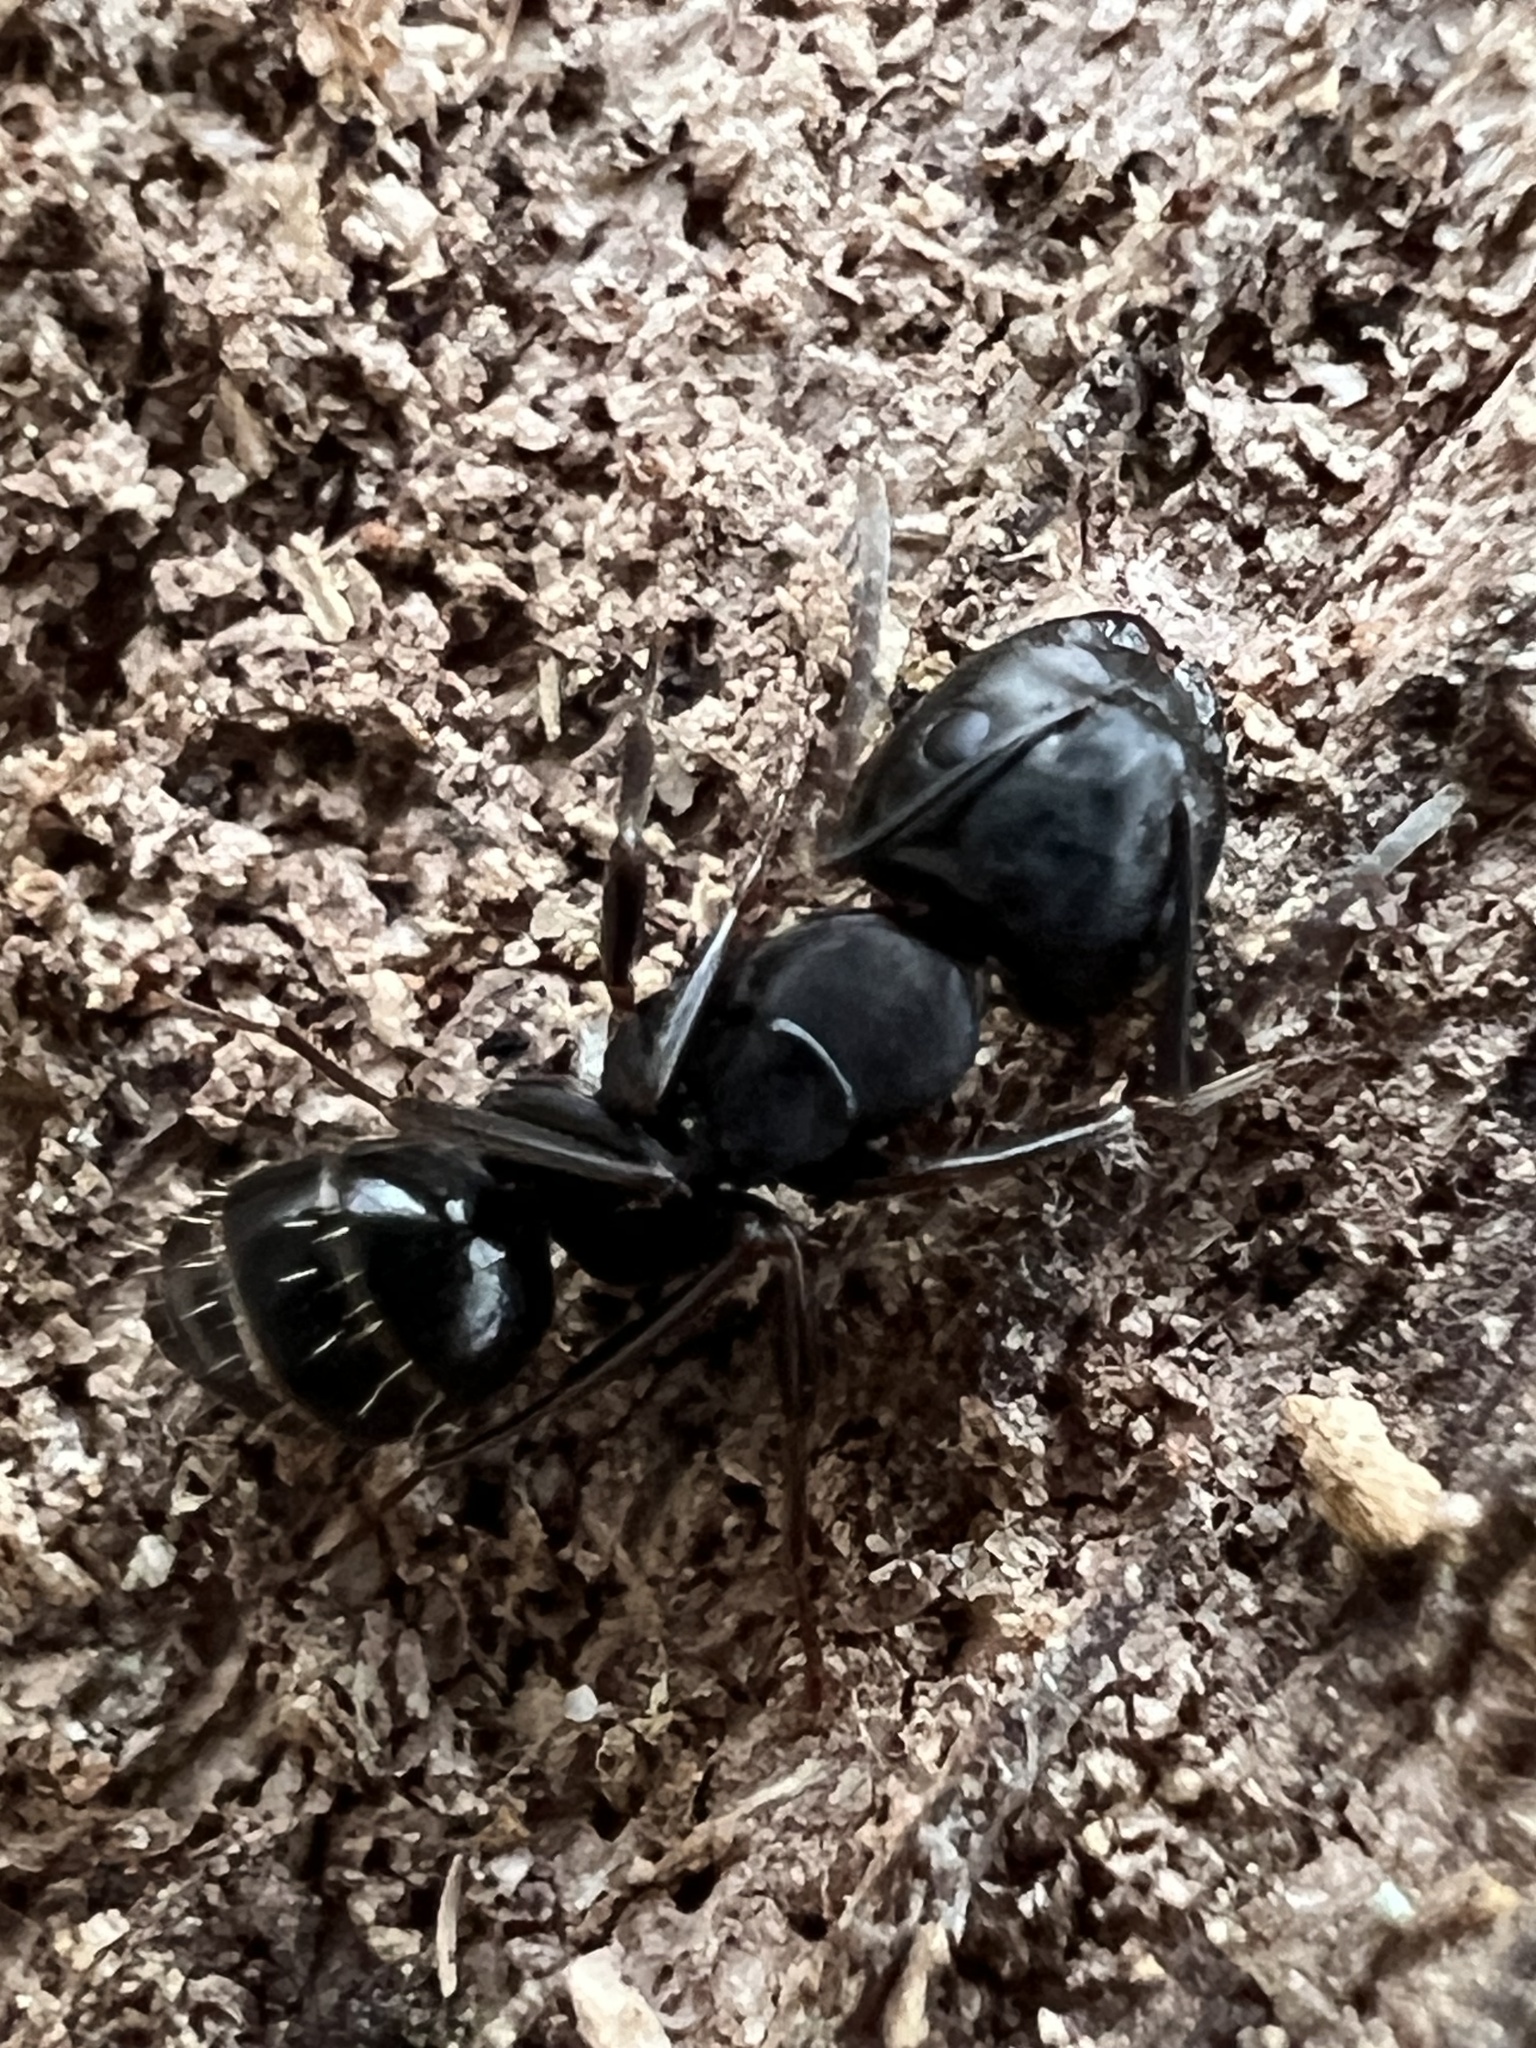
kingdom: Animalia
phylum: Arthropoda
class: Insecta
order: Hymenoptera
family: Formicidae
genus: Camponotus
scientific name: Camponotus nearcticus
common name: Smaller carpenter ant
